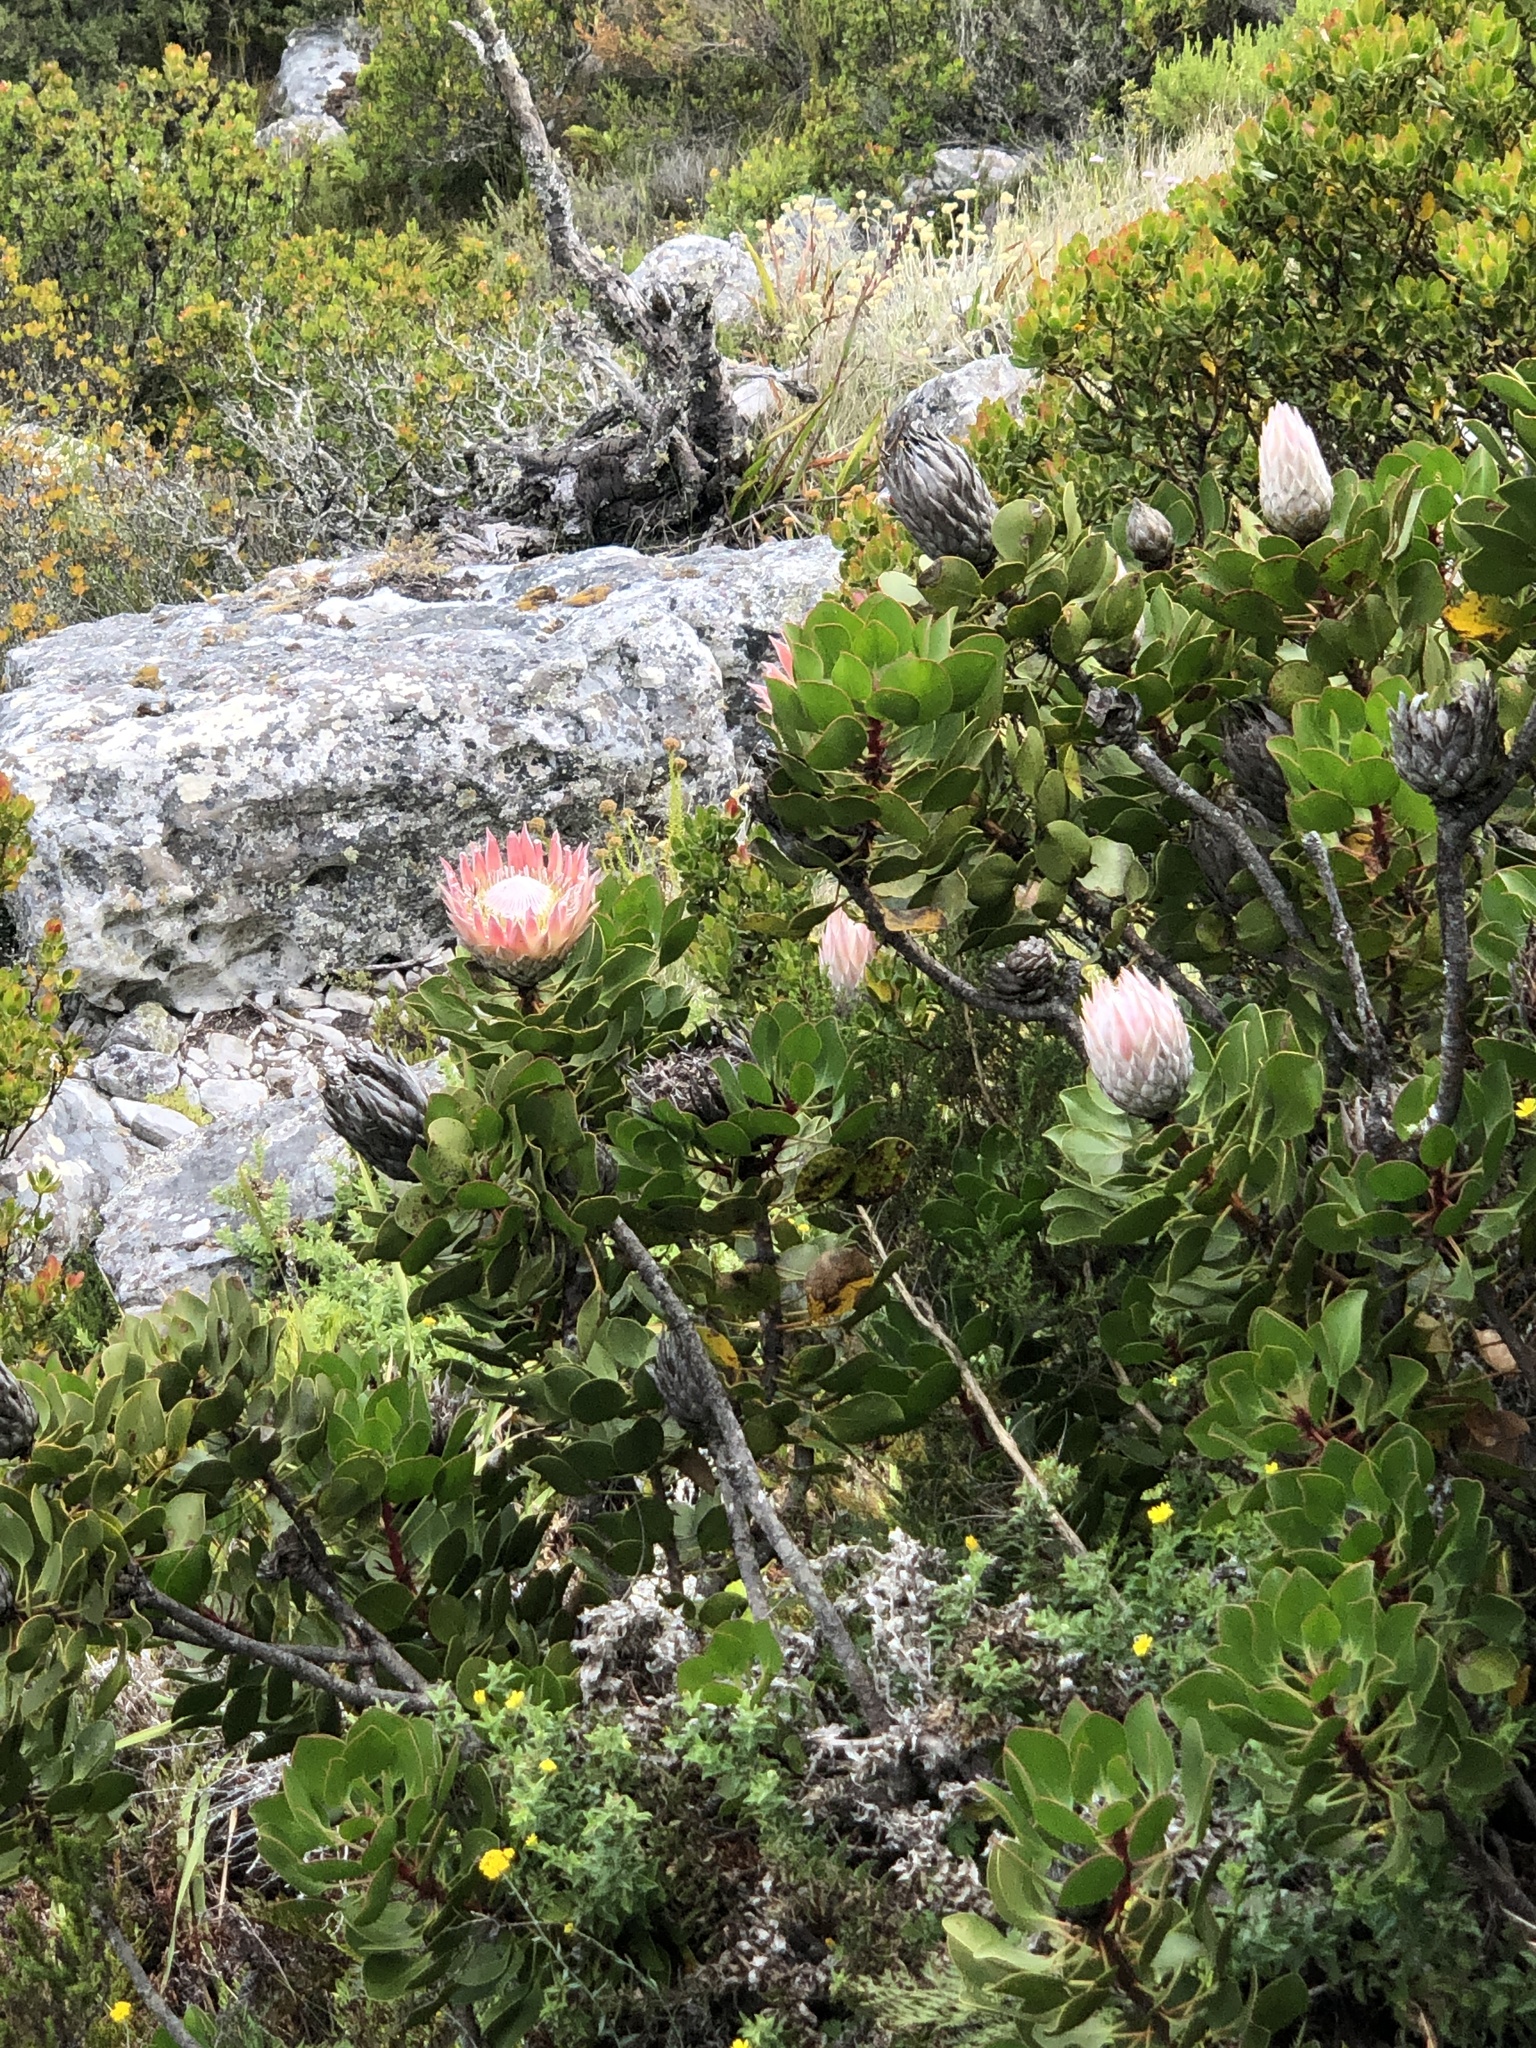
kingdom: Plantae
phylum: Tracheophyta
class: Magnoliopsida
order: Proteales
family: Proteaceae
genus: Protea
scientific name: Protea cynaroides
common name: King protea
